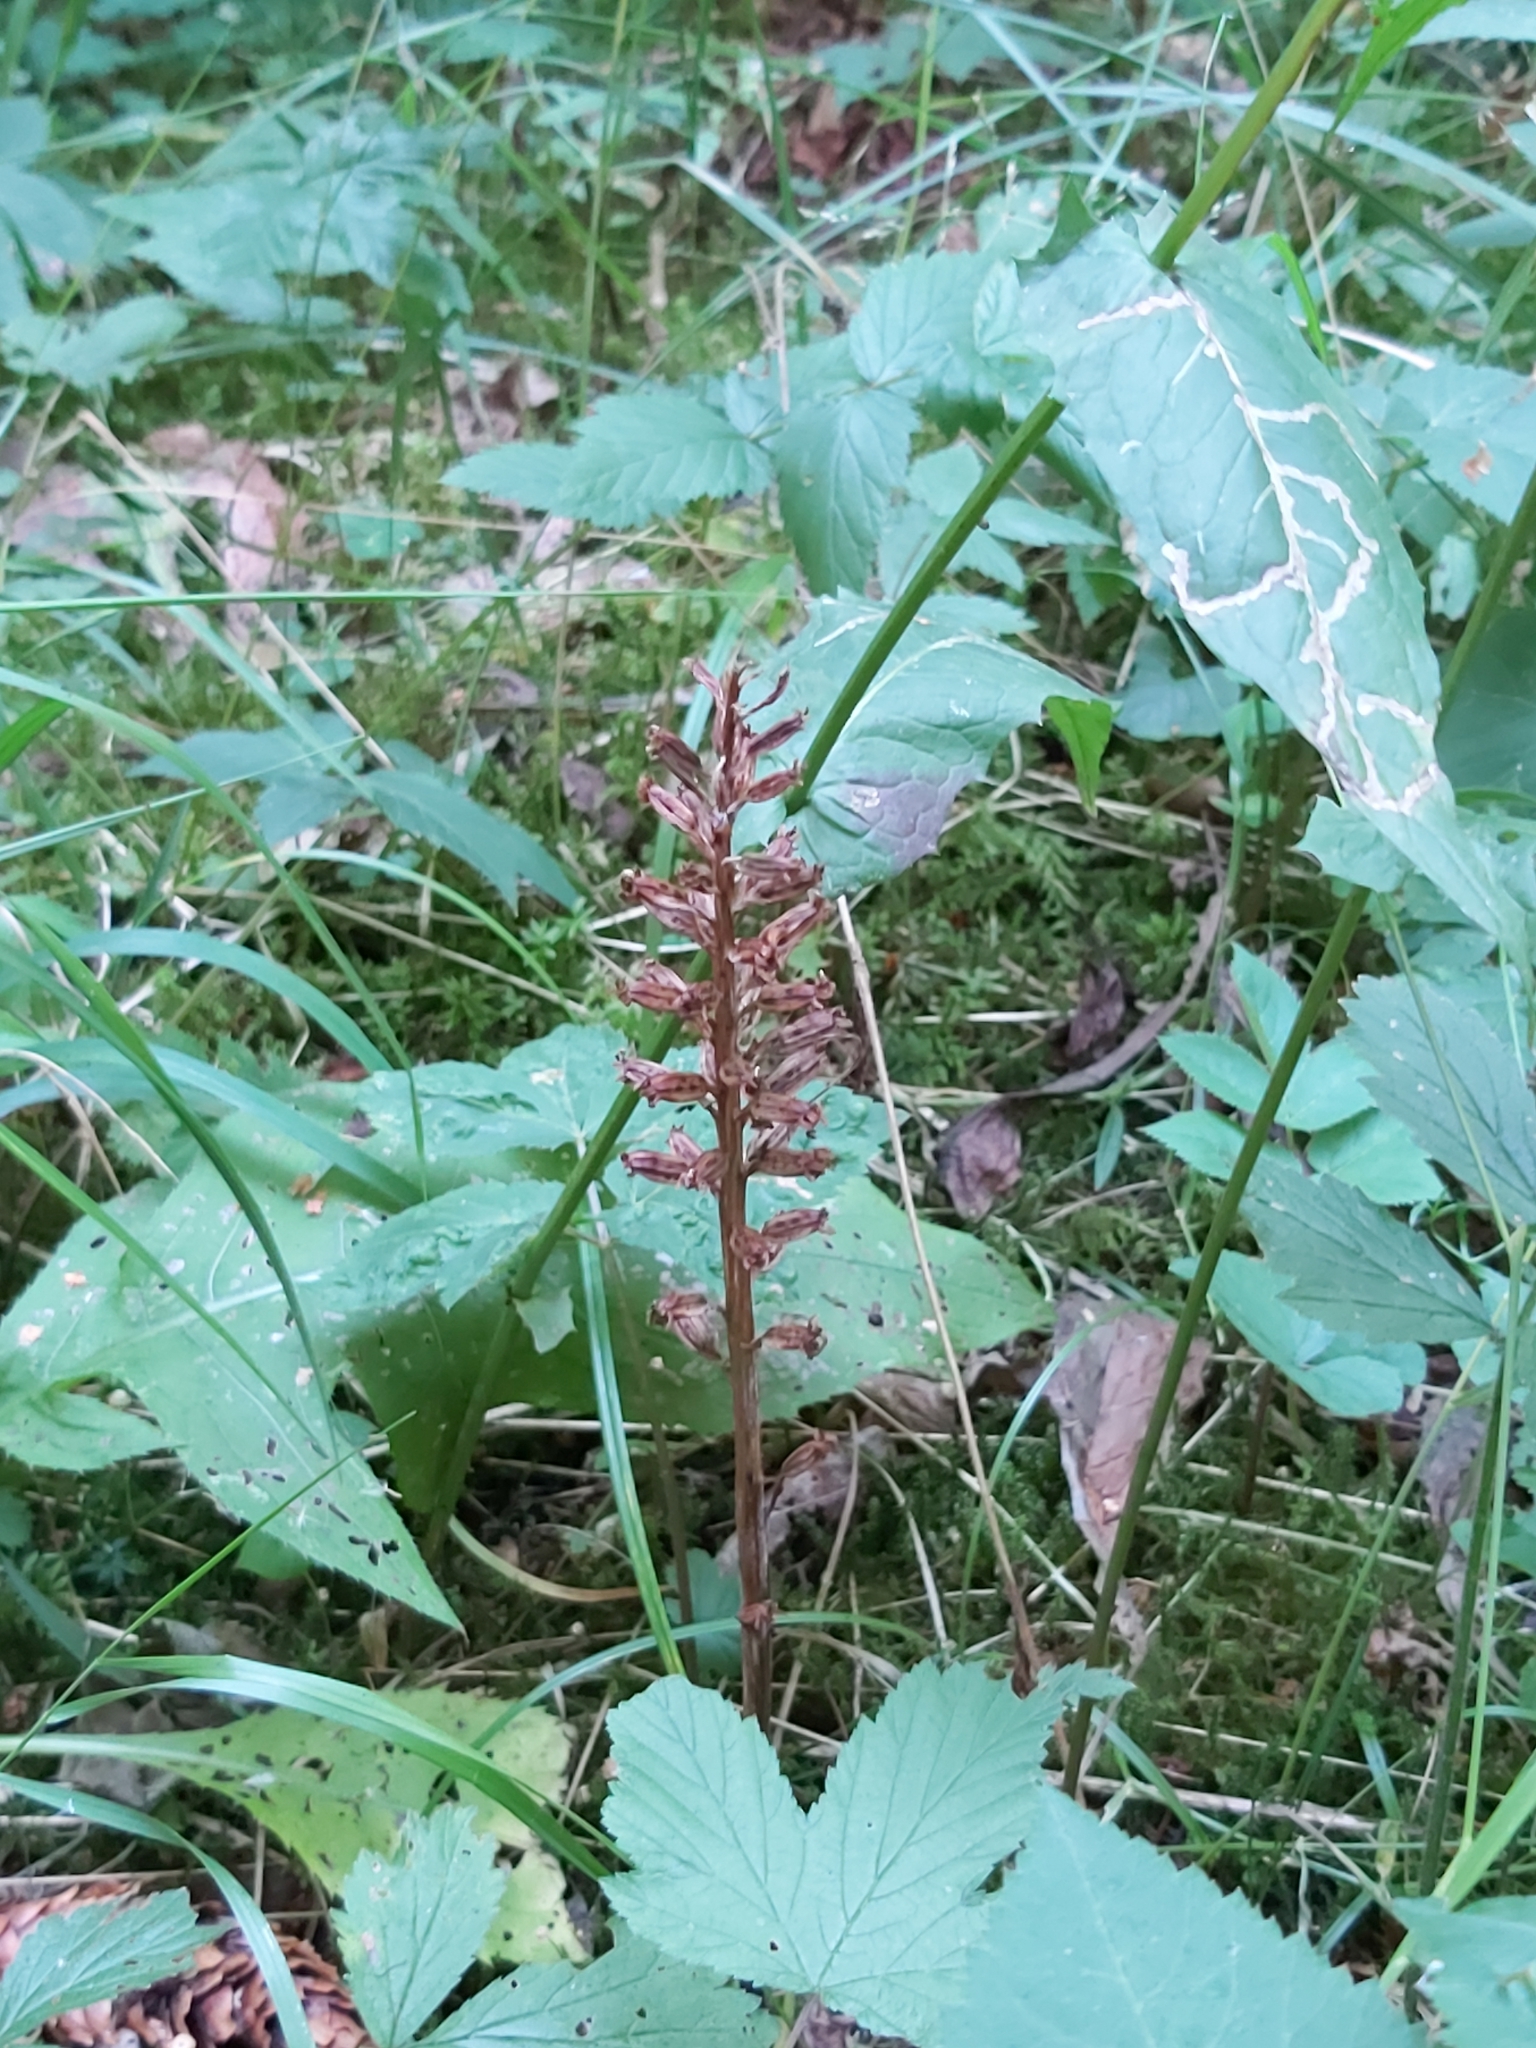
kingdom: Plantae
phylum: Tracheophyta
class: Liliopsida
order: Asparagales
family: Orchidaceae
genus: Neottia
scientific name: Neottia nidus-avis
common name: Bird's-nest orchid
